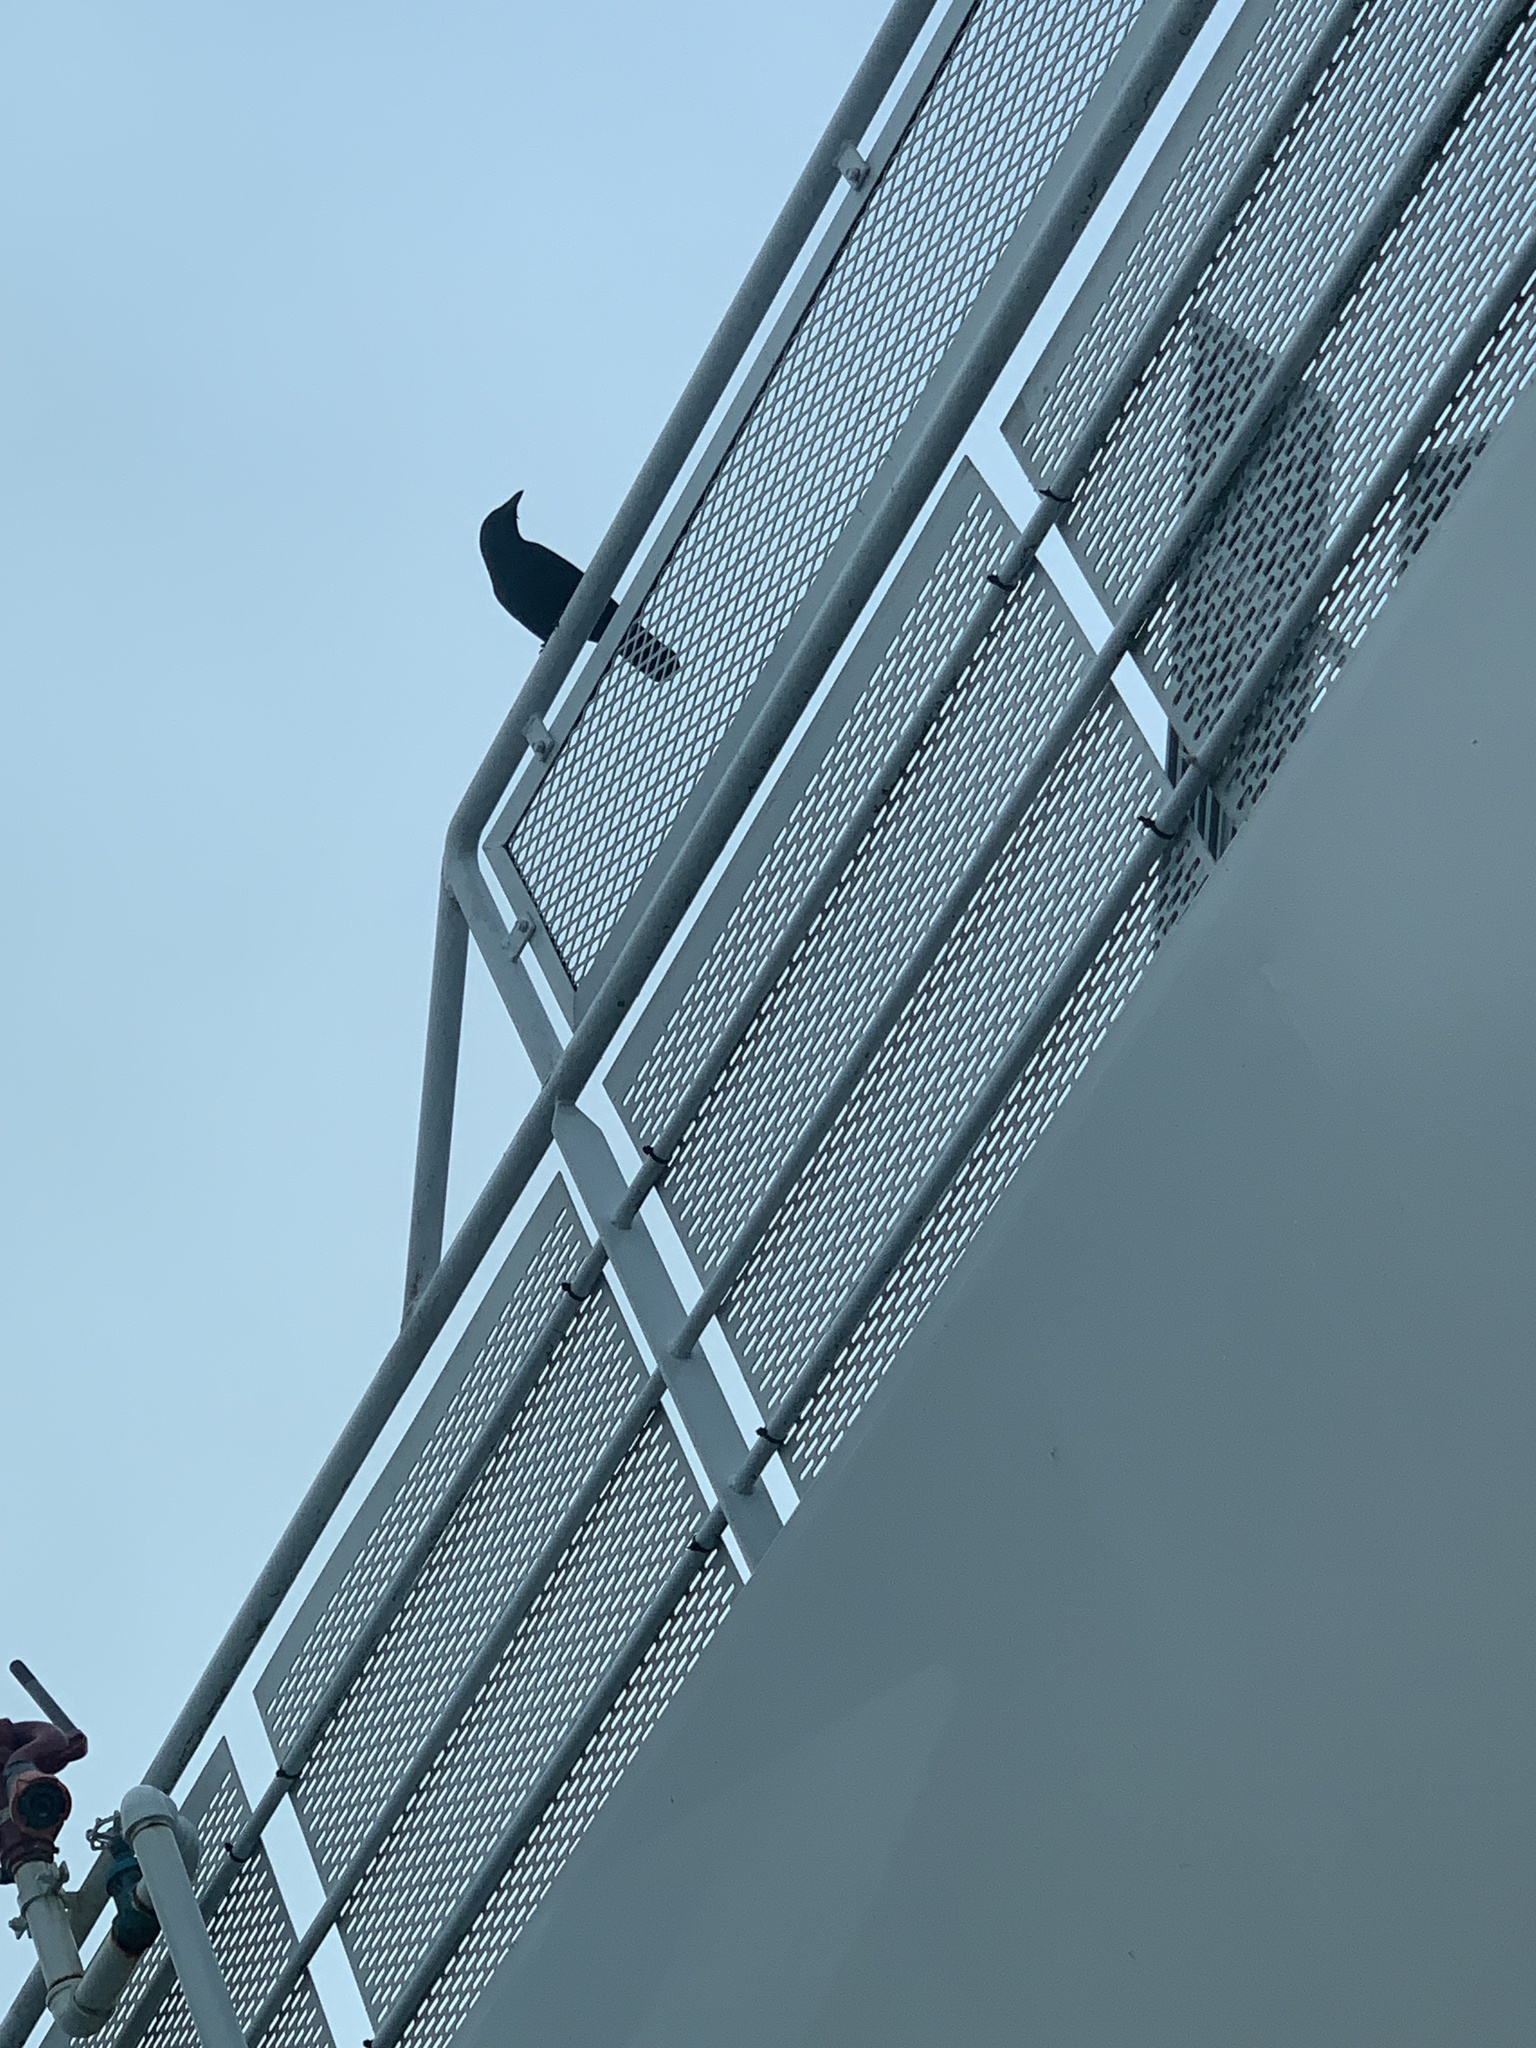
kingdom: Animalia
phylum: Chordata
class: Aves
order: Passeriformes
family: Corvidae
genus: Corvus
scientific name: Corvus brachyrhynchos
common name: American crow
